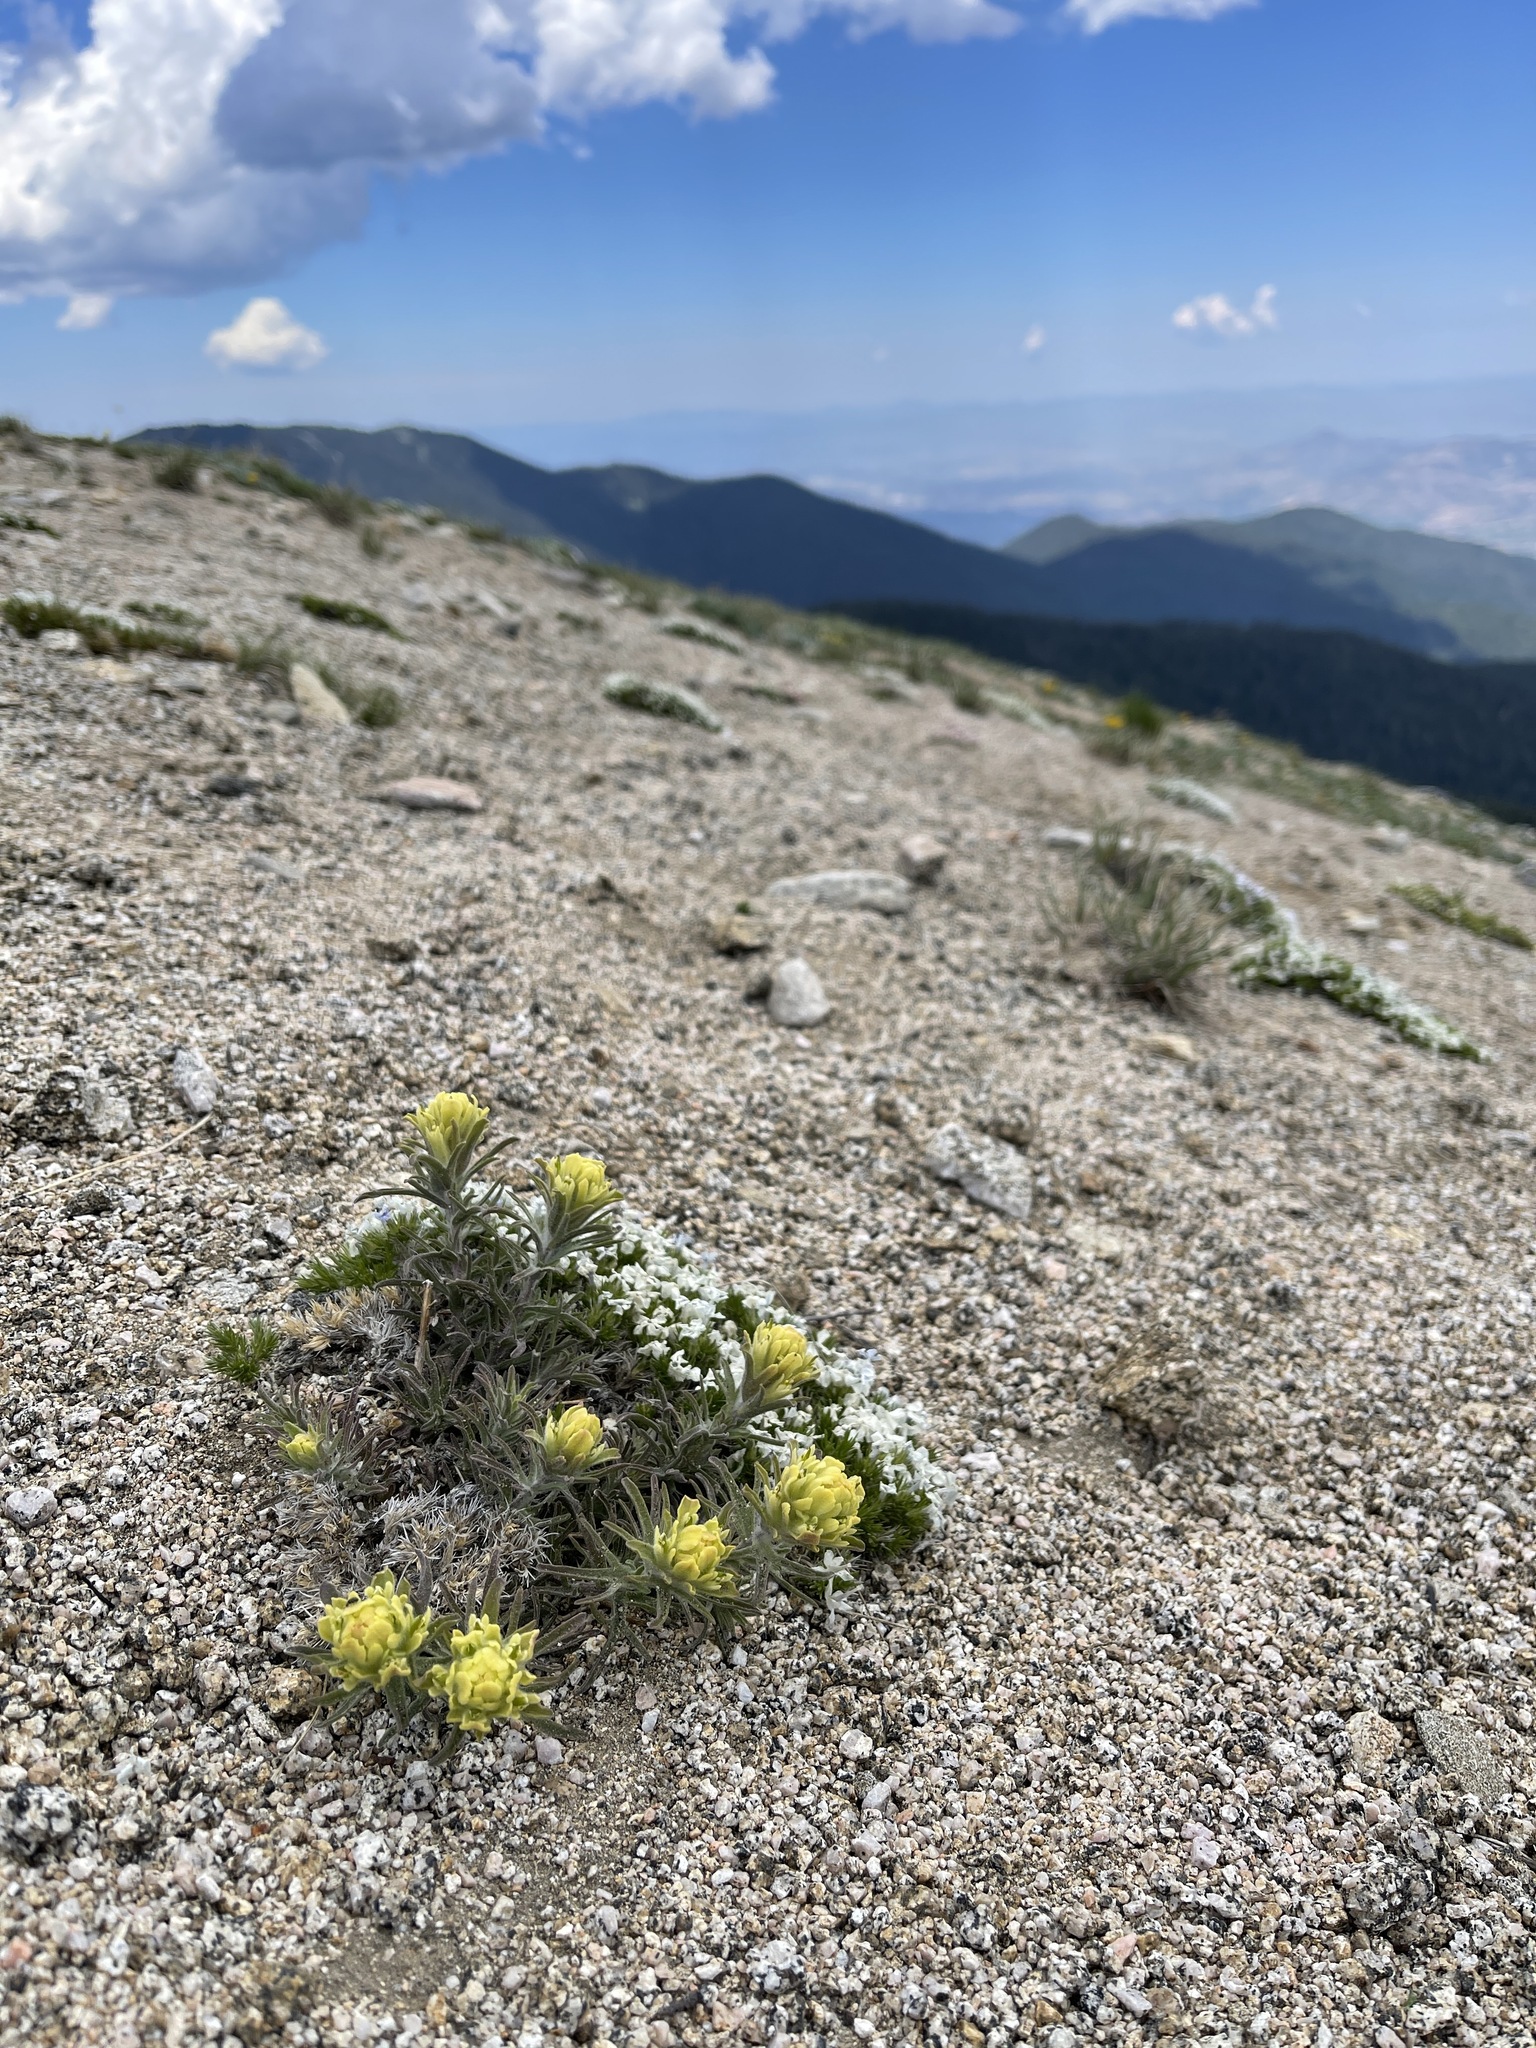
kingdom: Plantae
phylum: Tracheophyta
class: Magnoliopsida
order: Lamiales
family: Orobanchaceae
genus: Castilleja
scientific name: Castilleja arachnoidea
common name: Cobwebby indian paintbrush
